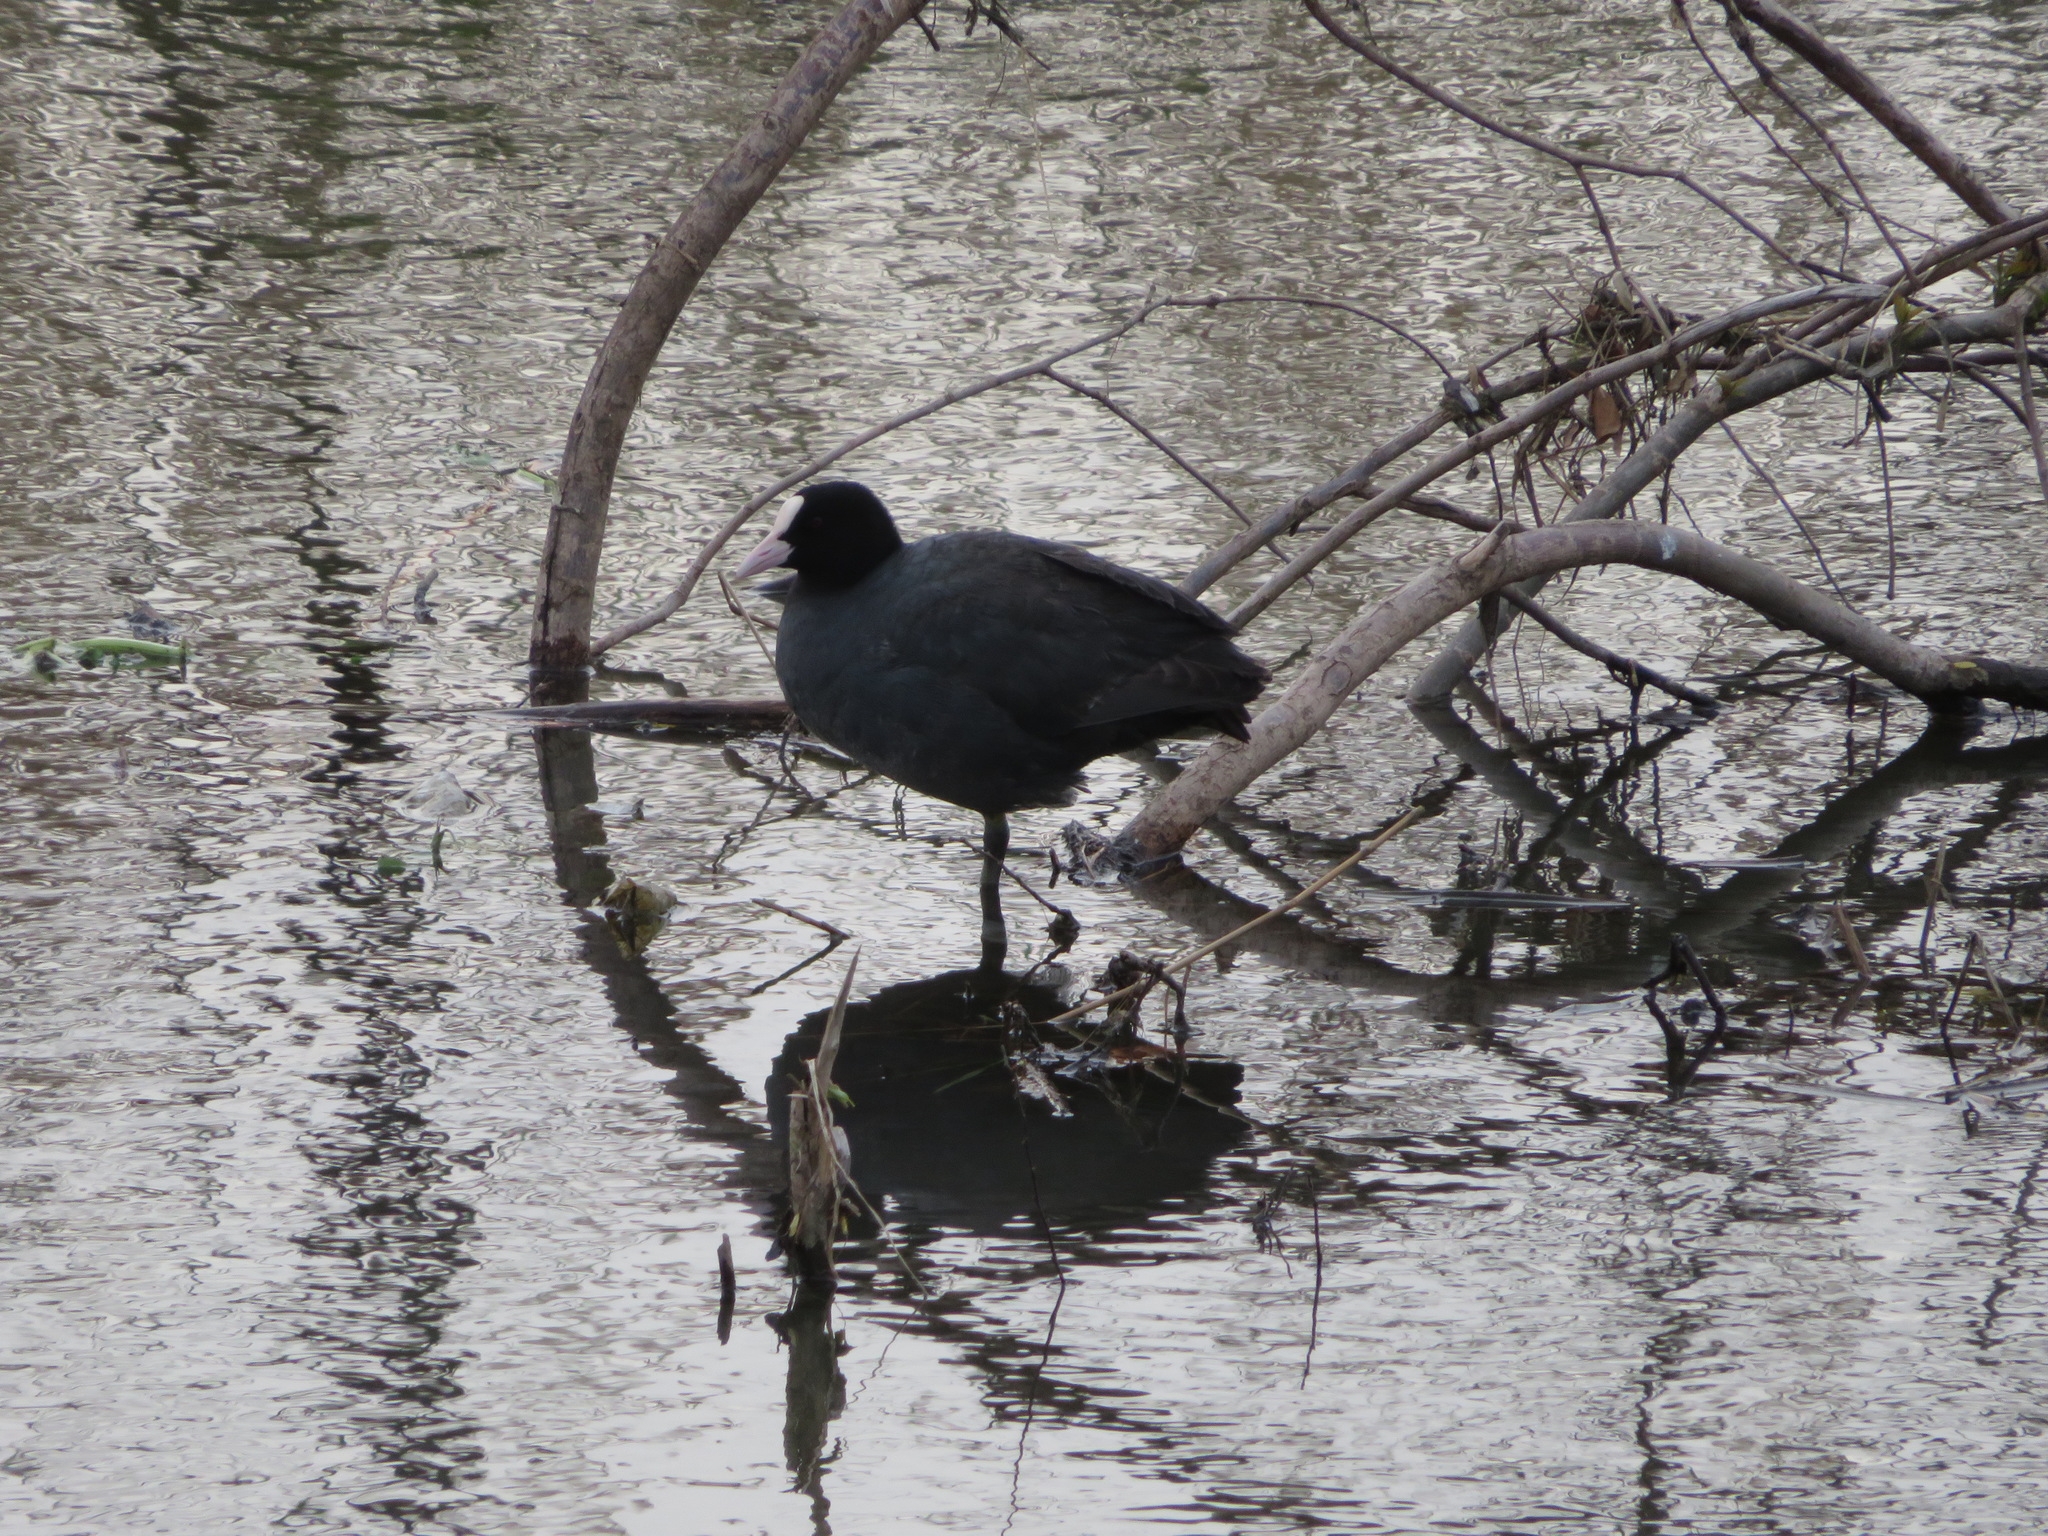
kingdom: Animalia
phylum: Chordata
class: Aves
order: Gruiformes
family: Rallidae
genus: Fulica
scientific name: Fulica atra
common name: Eurasian coot
